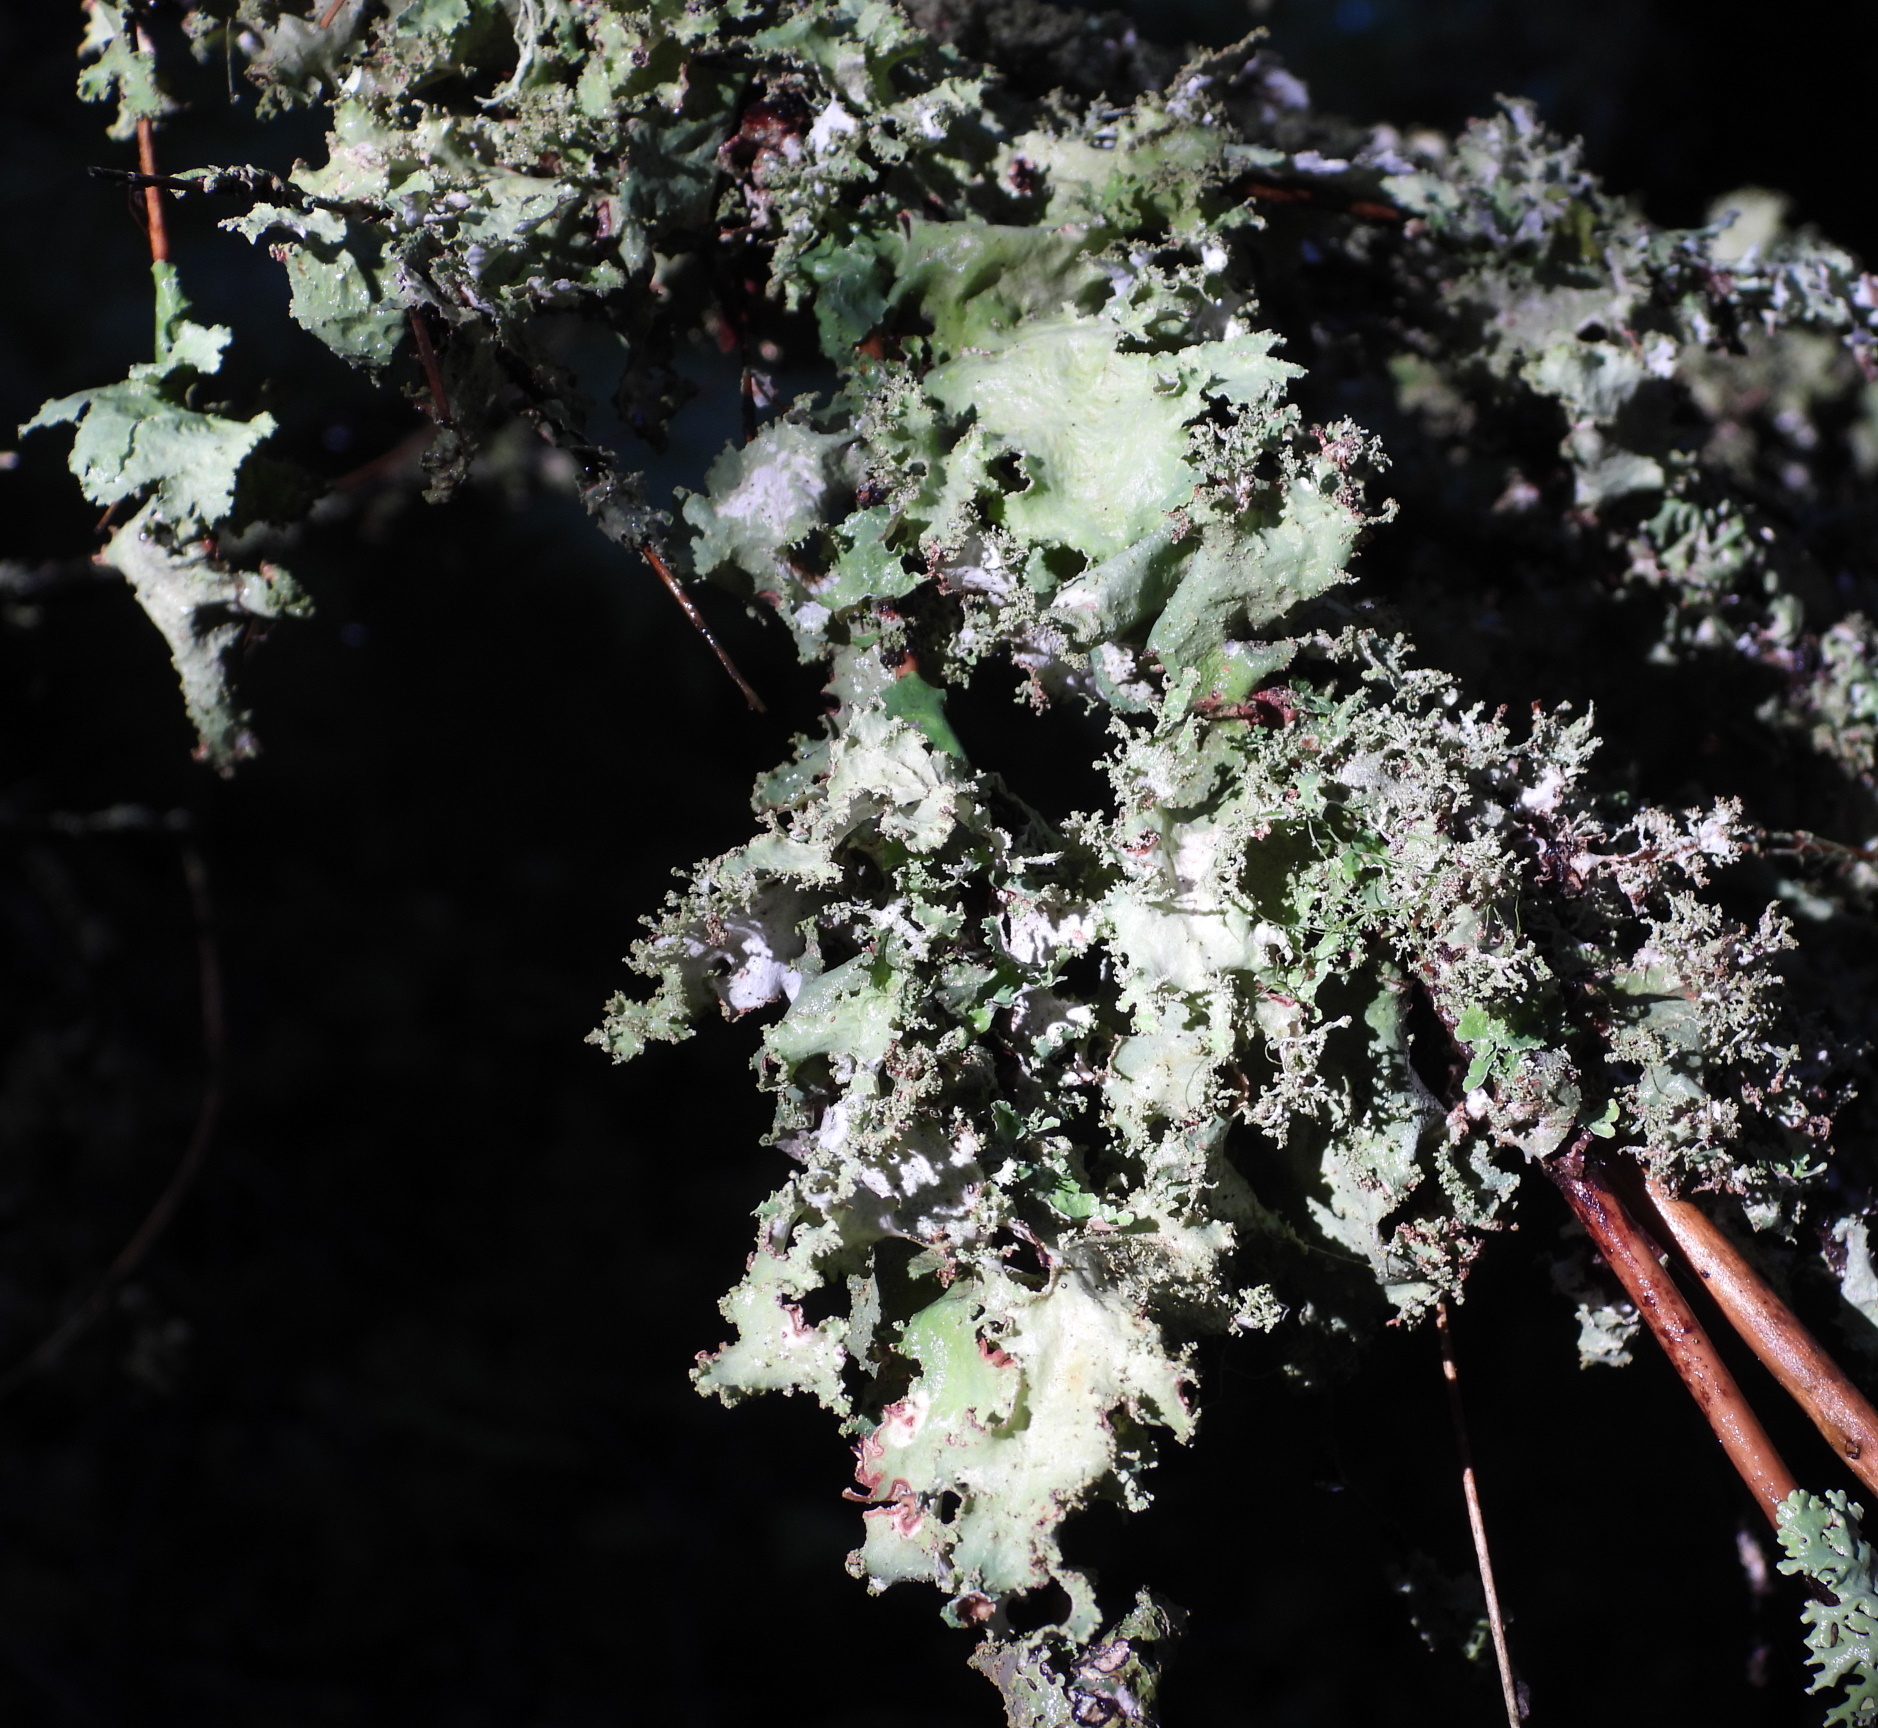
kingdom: Fungi
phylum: Ascomycota
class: Lecanoromycetes
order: Lecanorales
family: Parmeliaceae
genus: Platismatia
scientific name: Platismatia glauca
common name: Varied rag lichen
